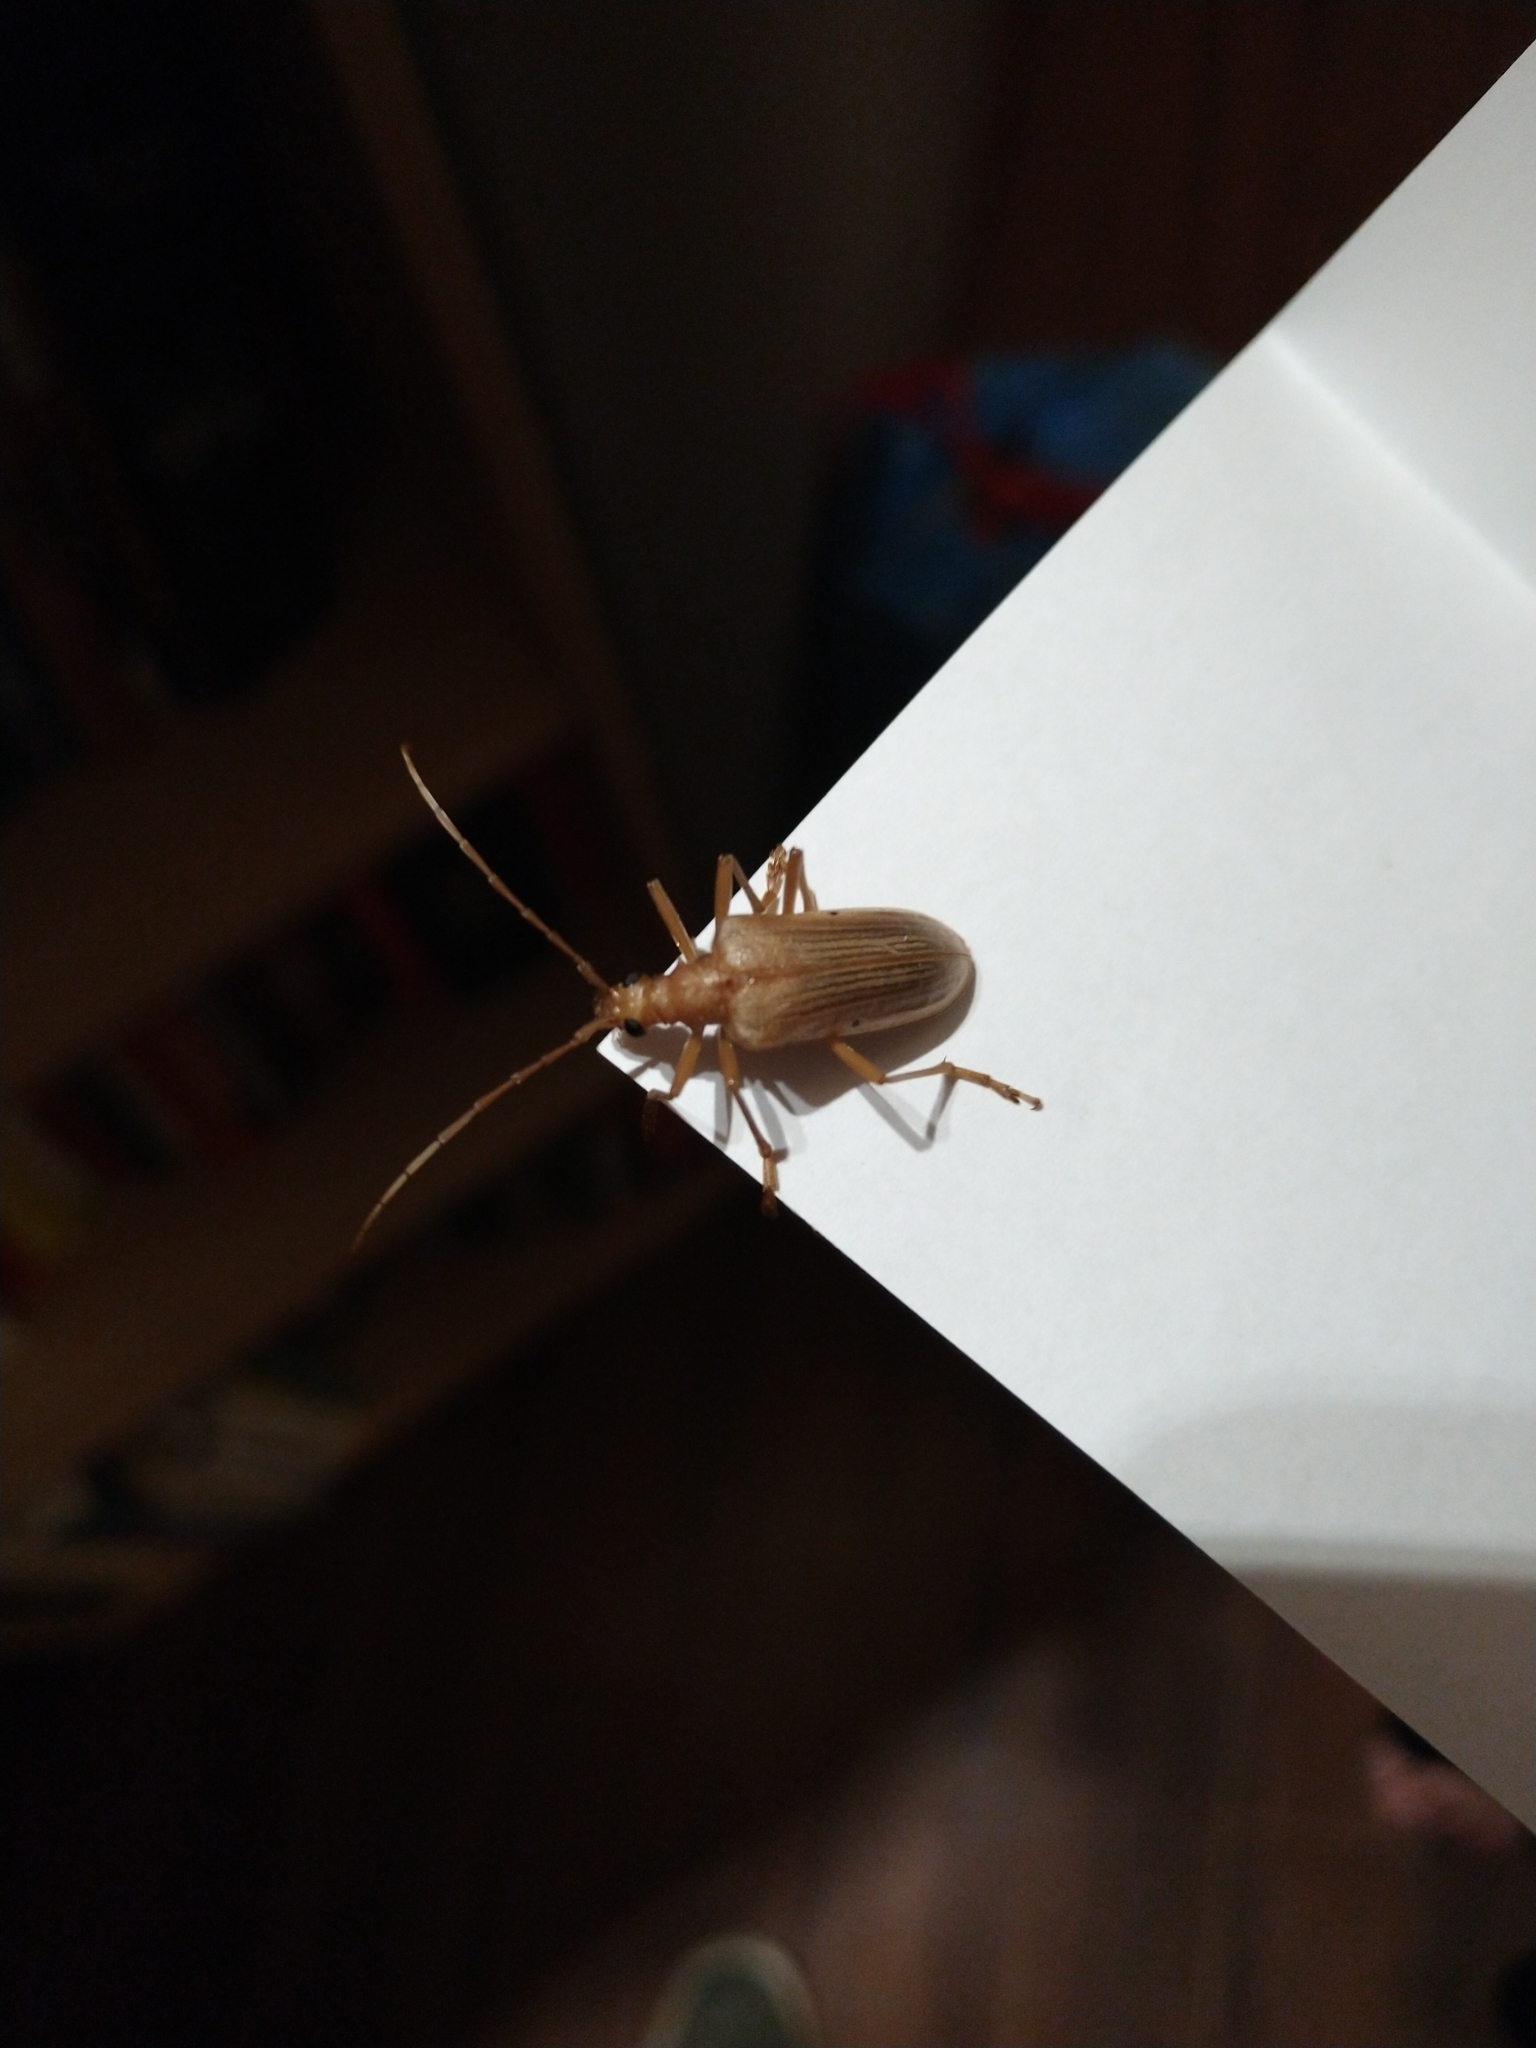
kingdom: Animalia
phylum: Arthropoda
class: Insecta
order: Coleoptera
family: Cerambycidae
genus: Centrodera
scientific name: Centrodera spurca
